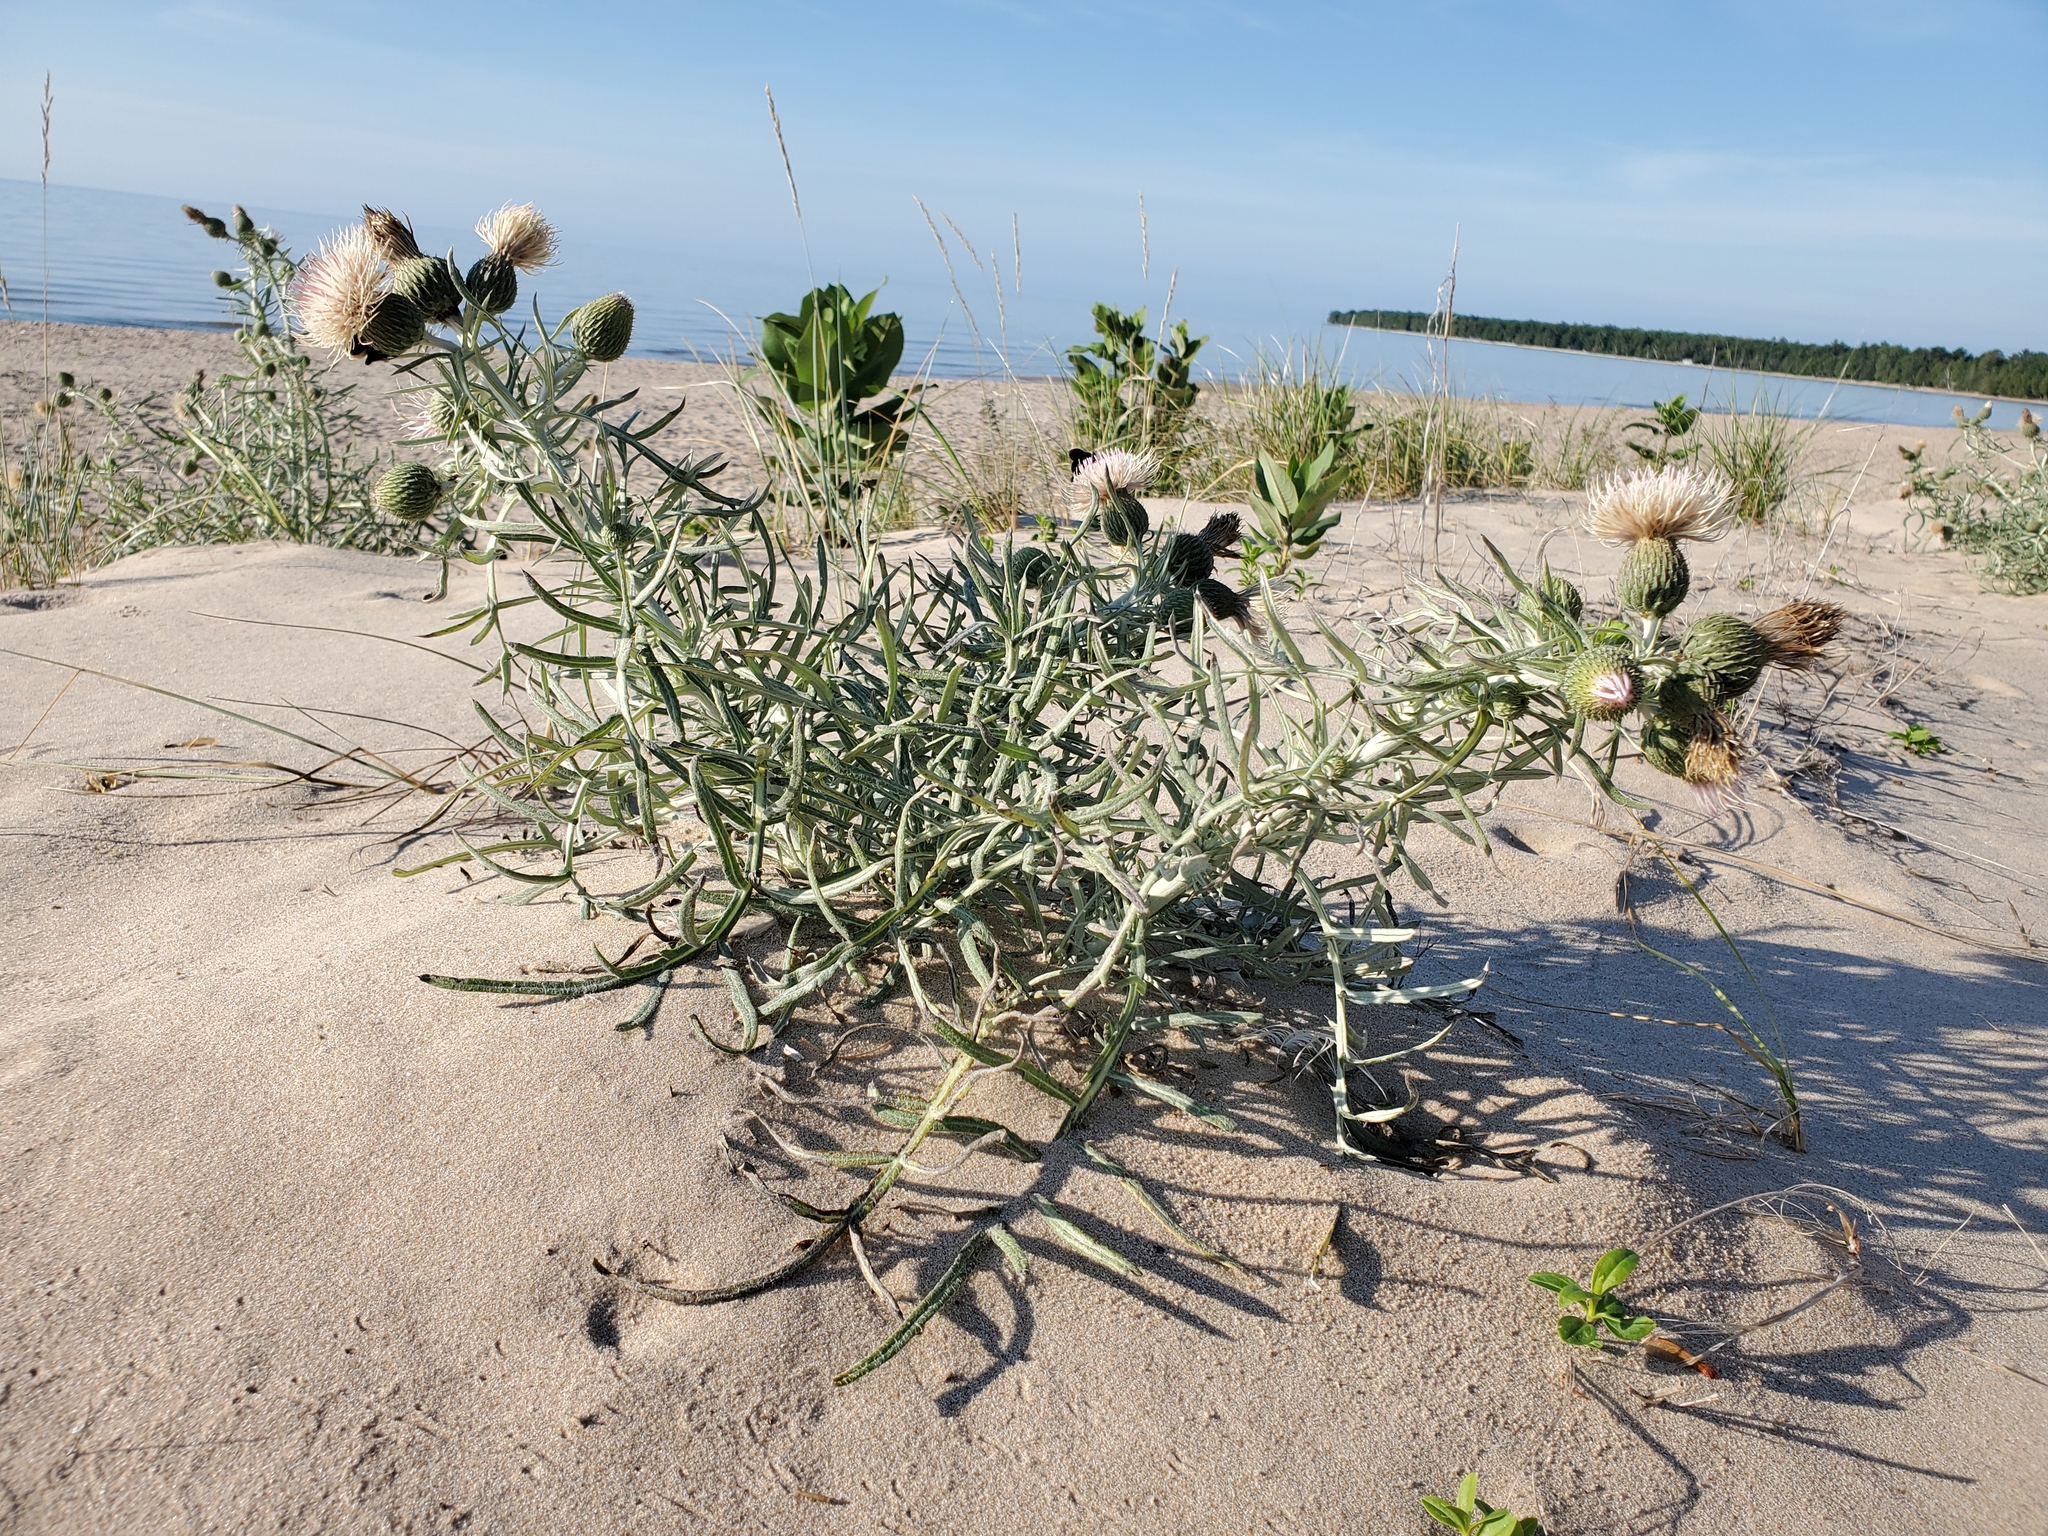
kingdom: Plantae
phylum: Tracheophyta
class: Magnoliopsida
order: Asterales
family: Asteraceae
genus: Cirsium
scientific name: Cirsium pitcheri
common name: Dune thistle
